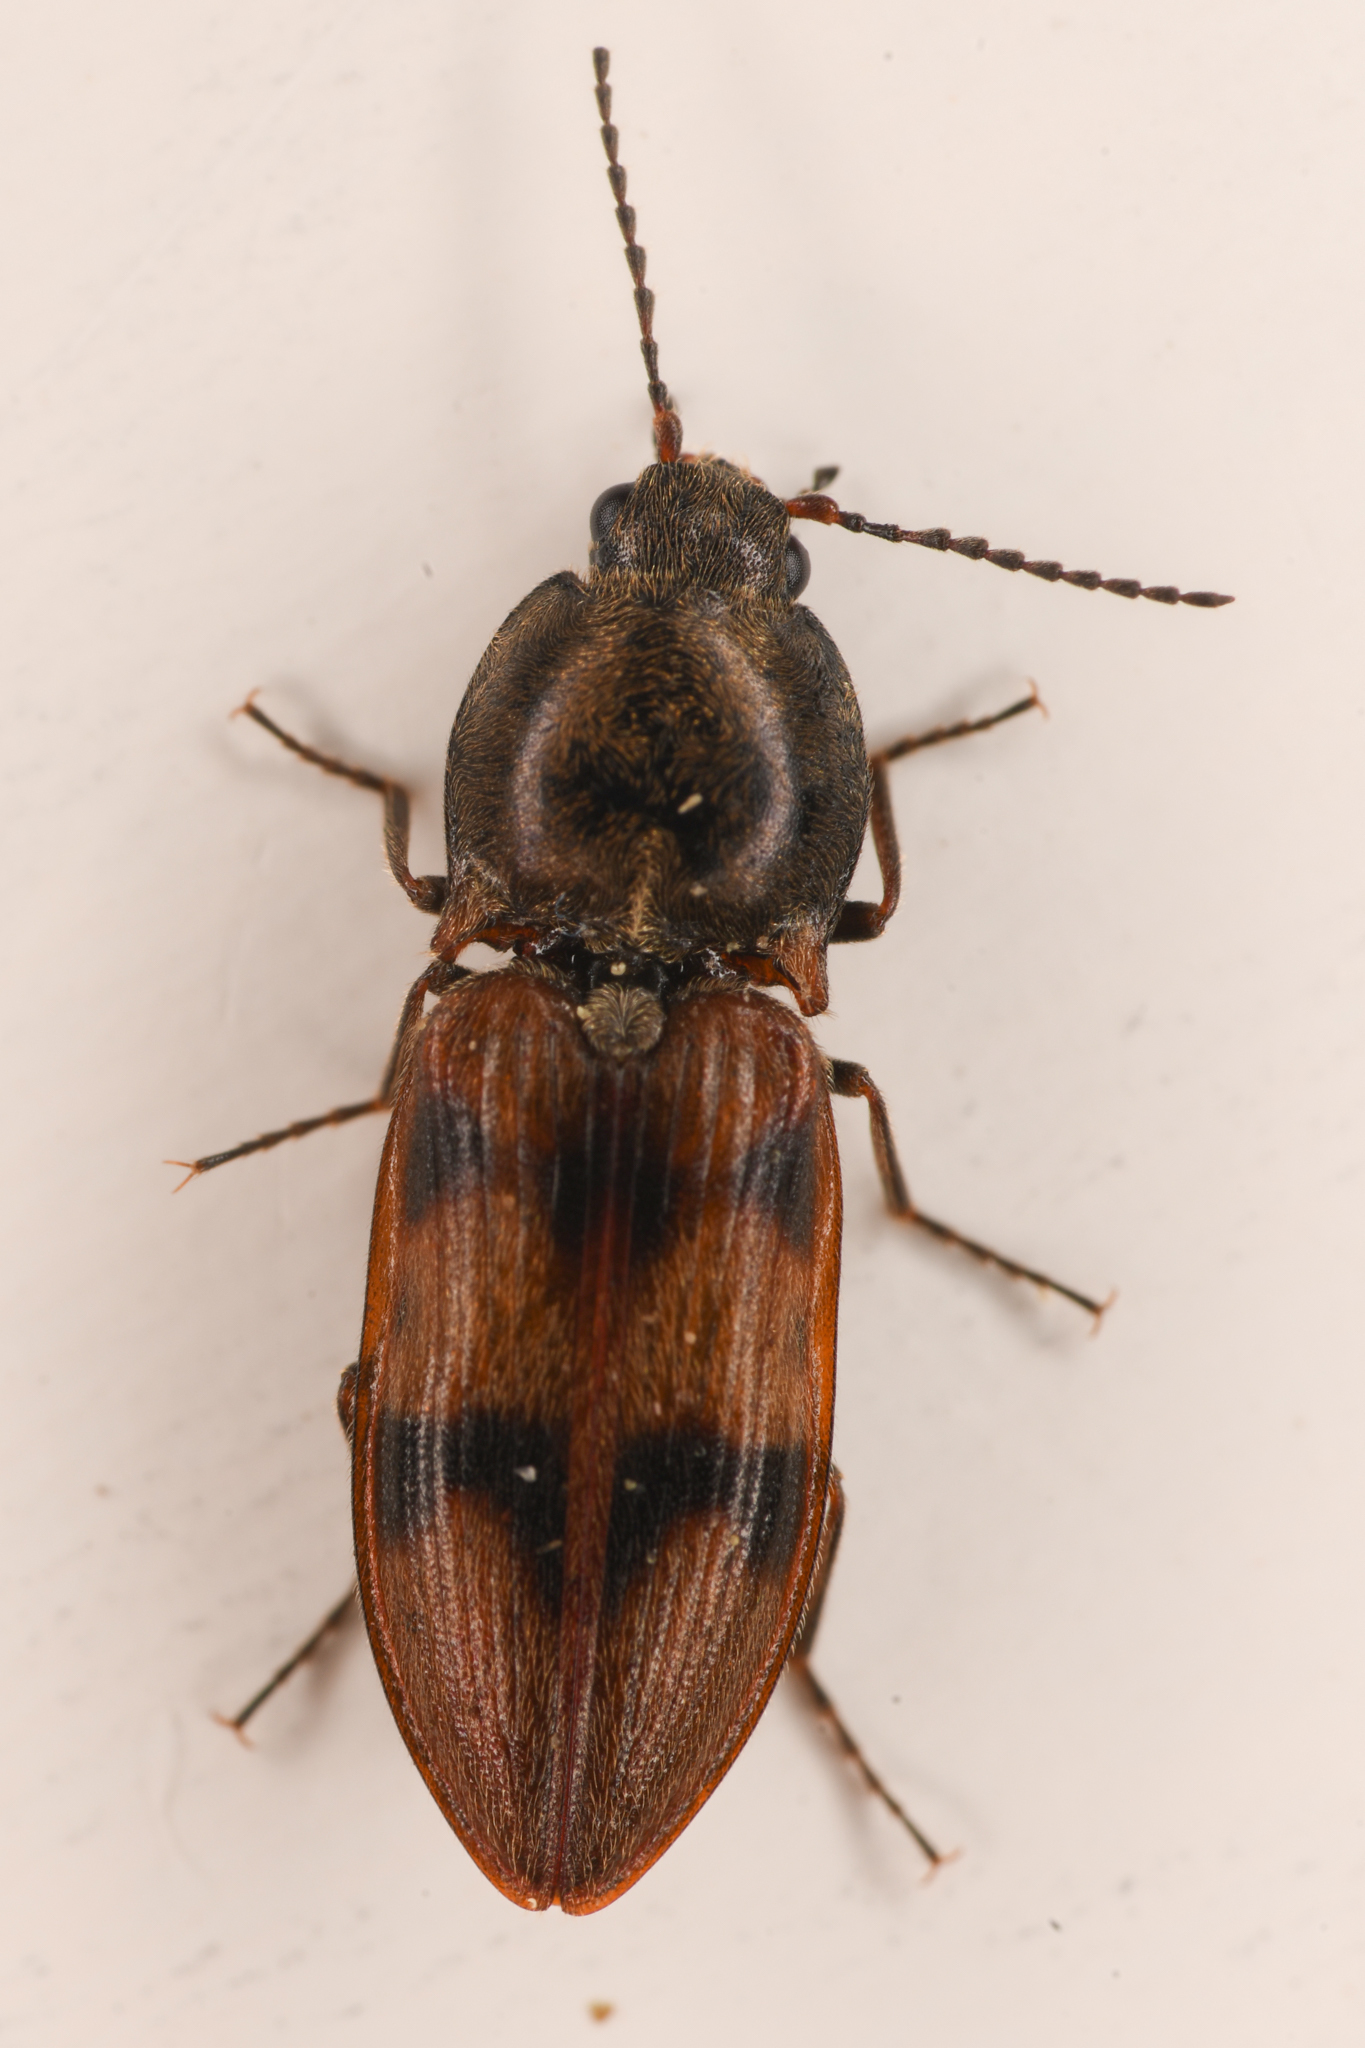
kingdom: Animalia
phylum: Arthropoda
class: Insecta
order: Coleoptera
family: Elateridae
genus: Stropenron
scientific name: Stropenron columbiana
